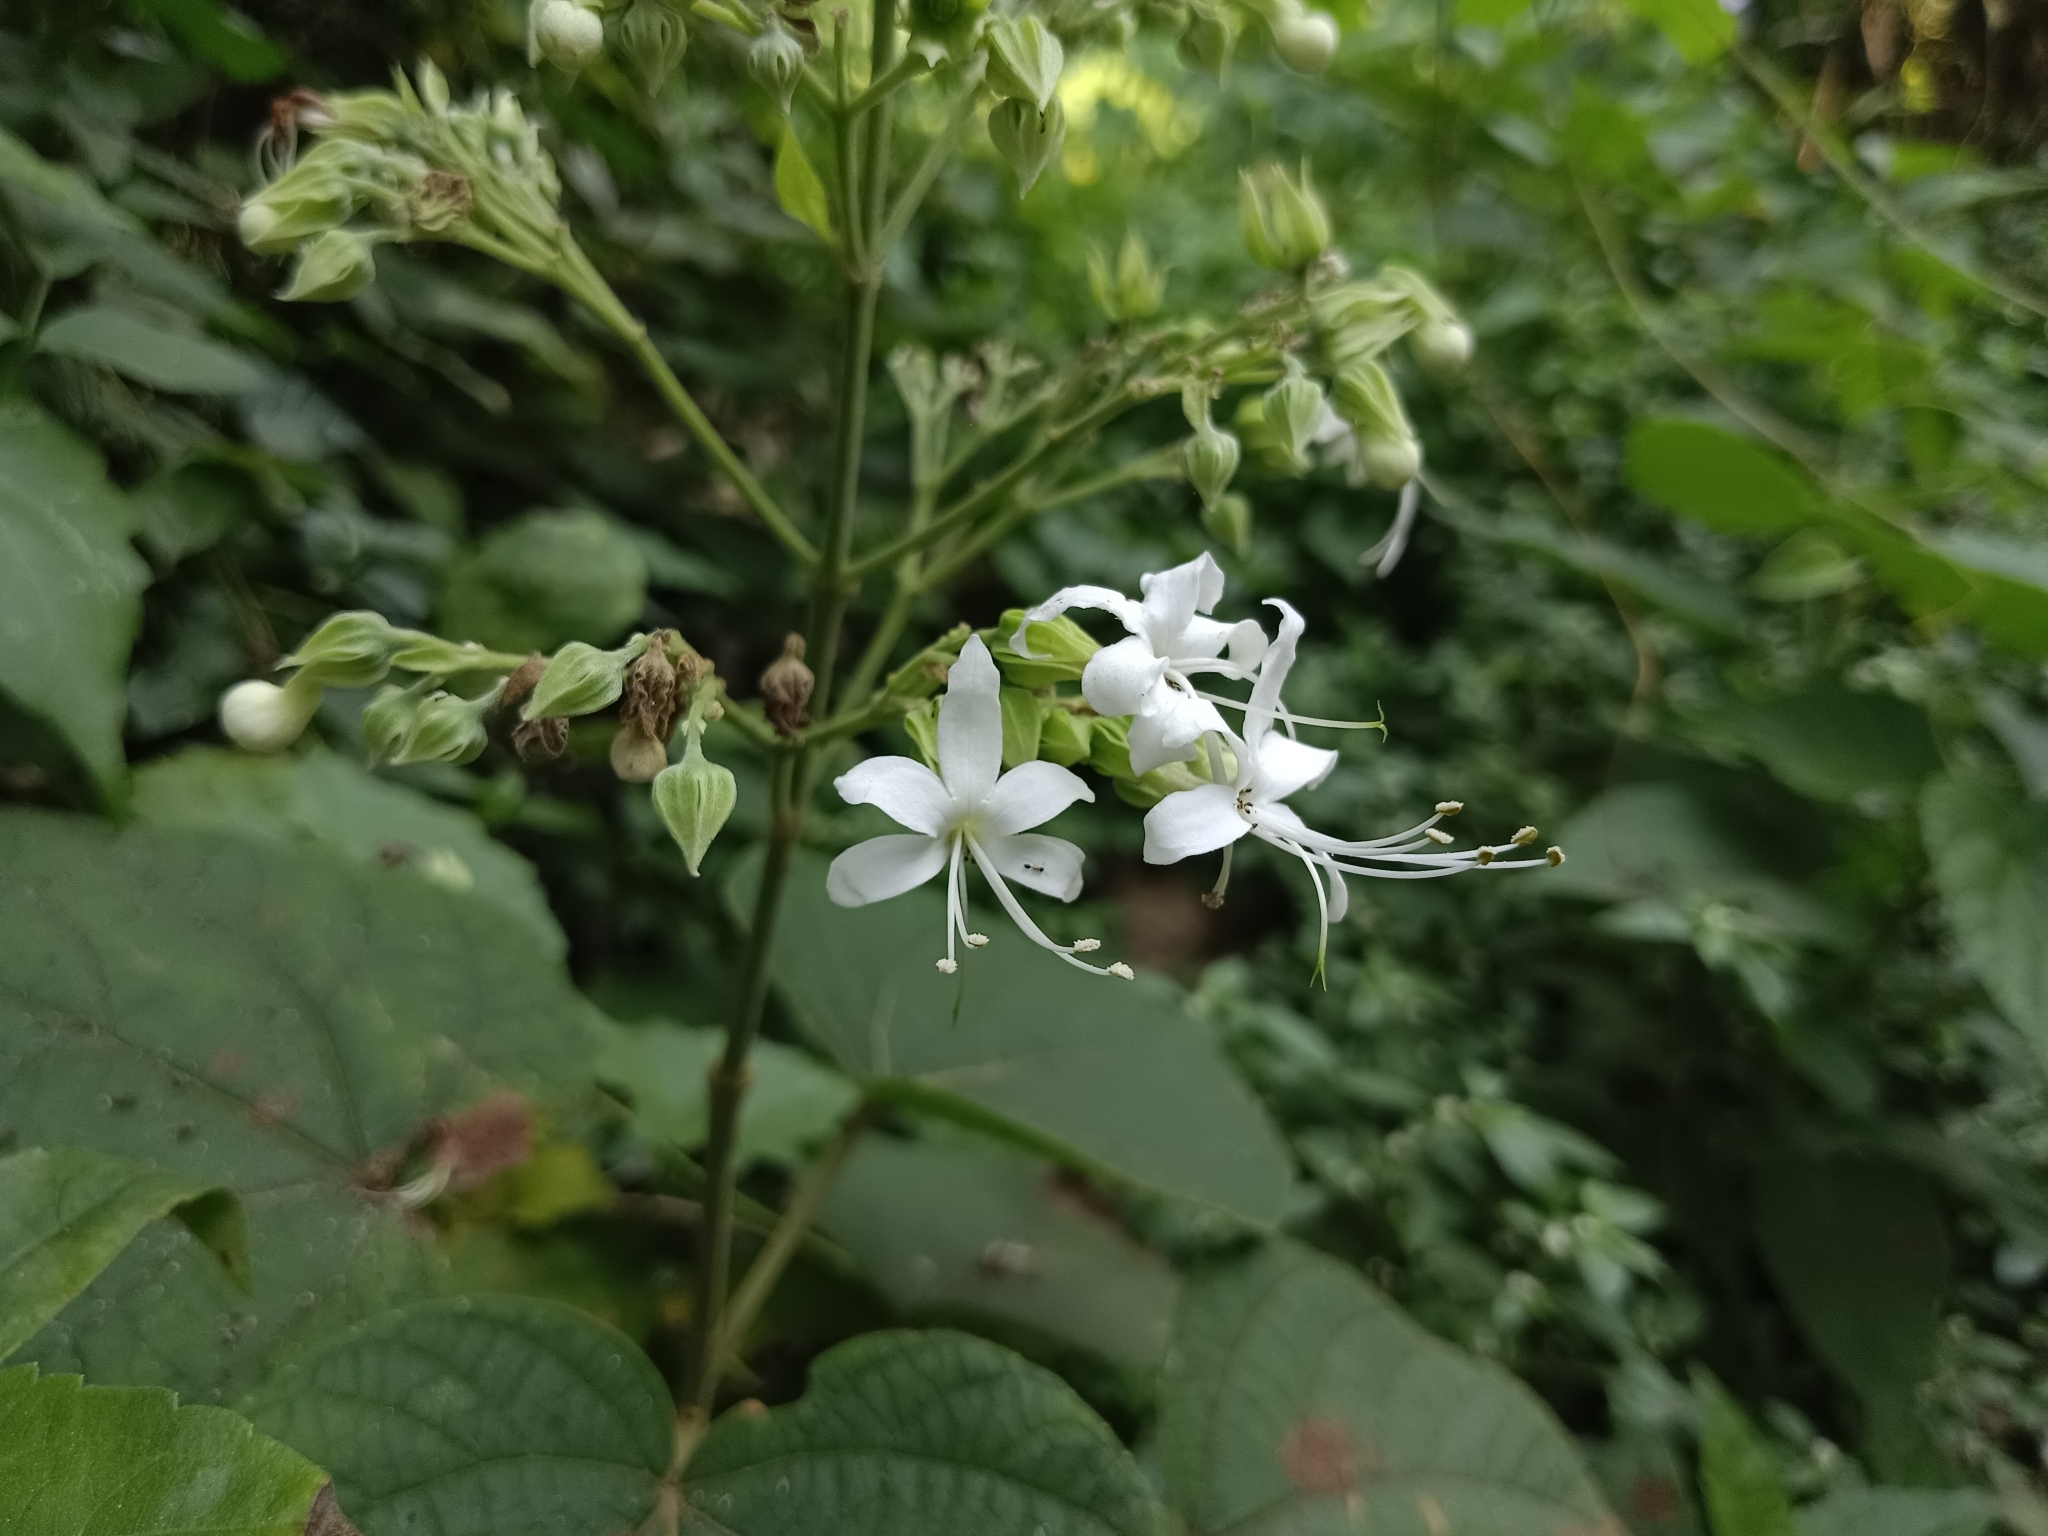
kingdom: Plantae
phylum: Tracheophyta
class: Magnoliopsida
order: Lamiales
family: Lamiaceae
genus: Clerodendrum
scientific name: Clerodendrum infortunatum
